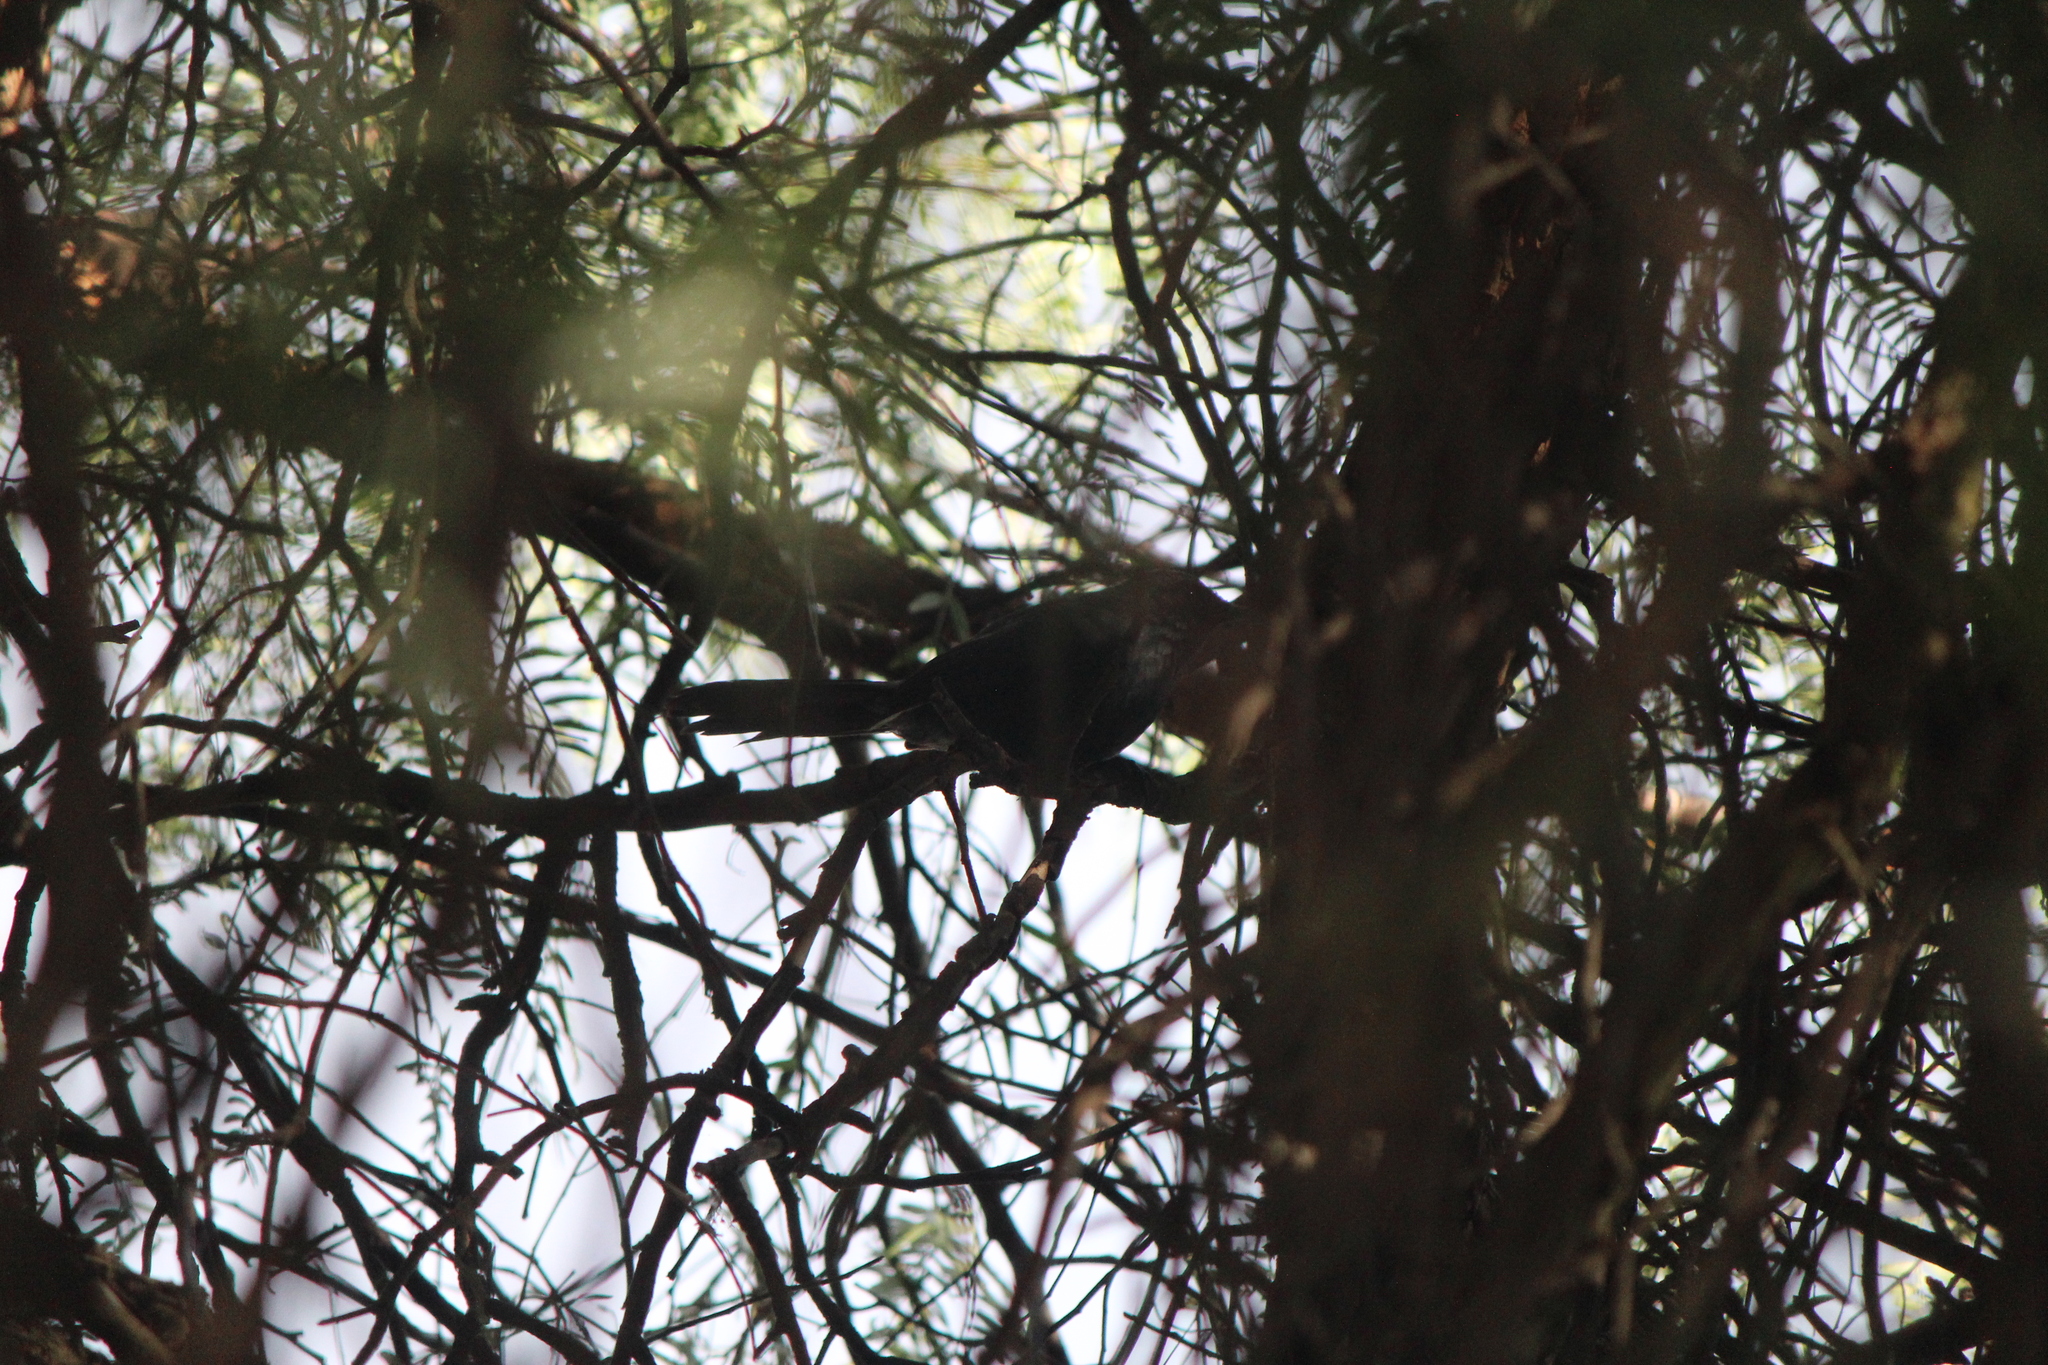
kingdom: Animalia
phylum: Chordata
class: Aves
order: Passeriformes
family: Mimidae
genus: Melanotis
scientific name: Melanotis caerulescens
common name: Blue mockingbird
